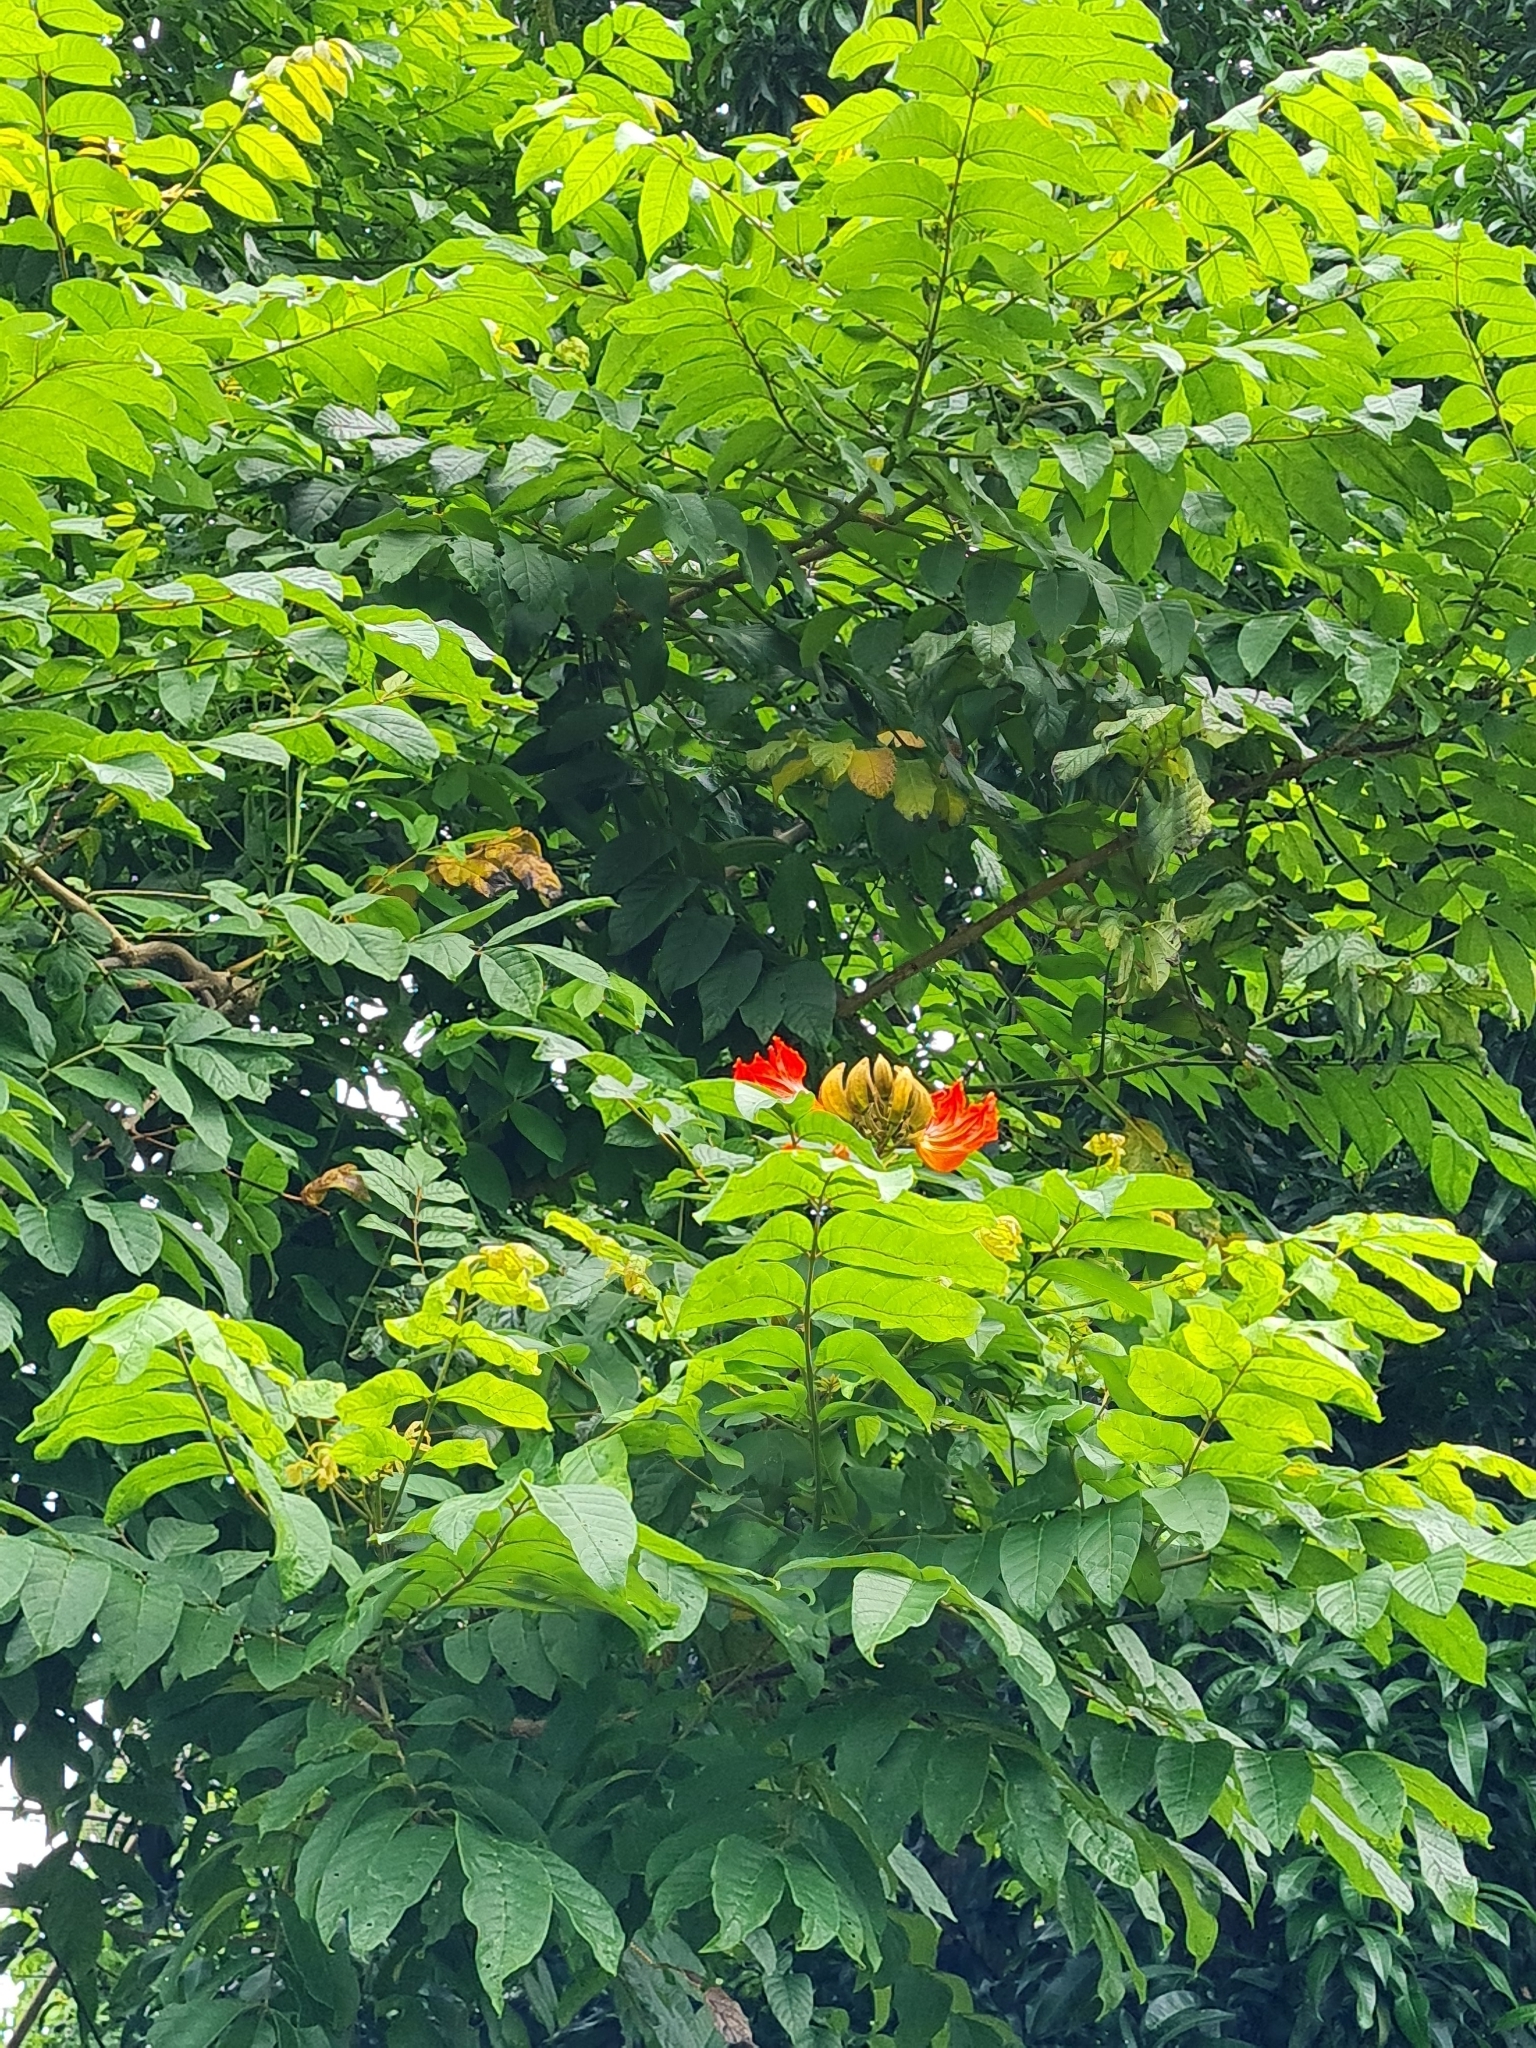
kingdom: Plantae
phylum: Tracheophyta
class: Magnoliopsida
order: Lamiales
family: Bignoniaceae
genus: Spathodea
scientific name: Spathodea campanulata
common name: African tuliptree
